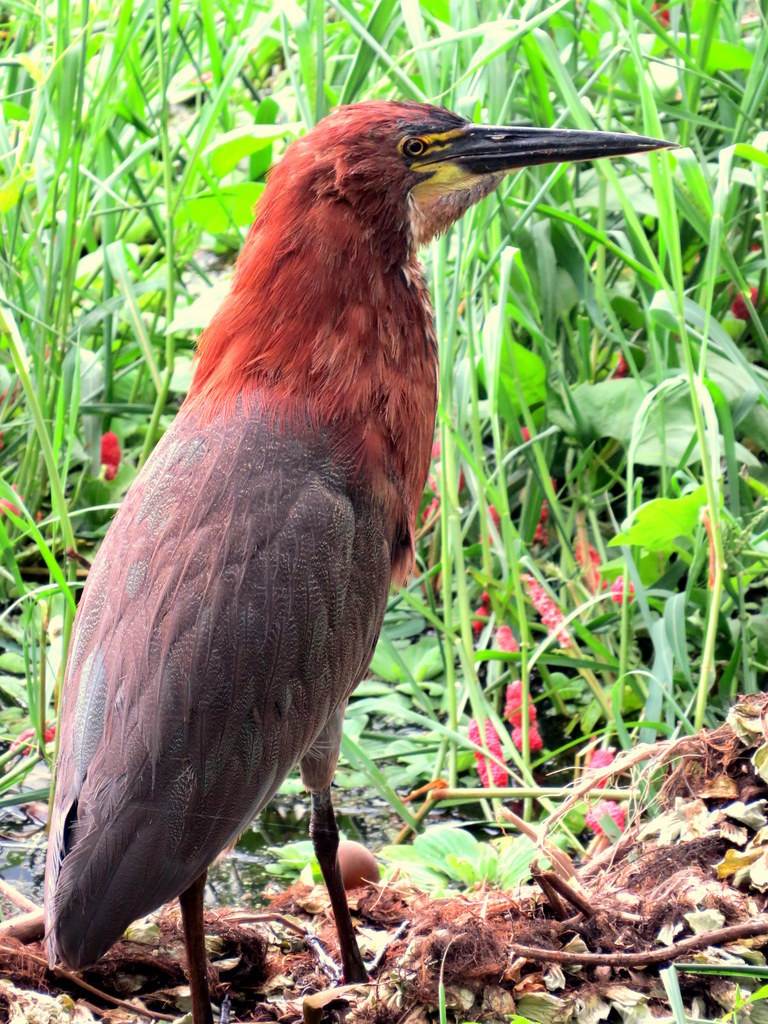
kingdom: Animalia
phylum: Chordata
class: Aves
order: Pelecaniformes
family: Ardeidae
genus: Tigrisoma
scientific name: Tigrisoma lineatum
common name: Rufescent tiger-heron
